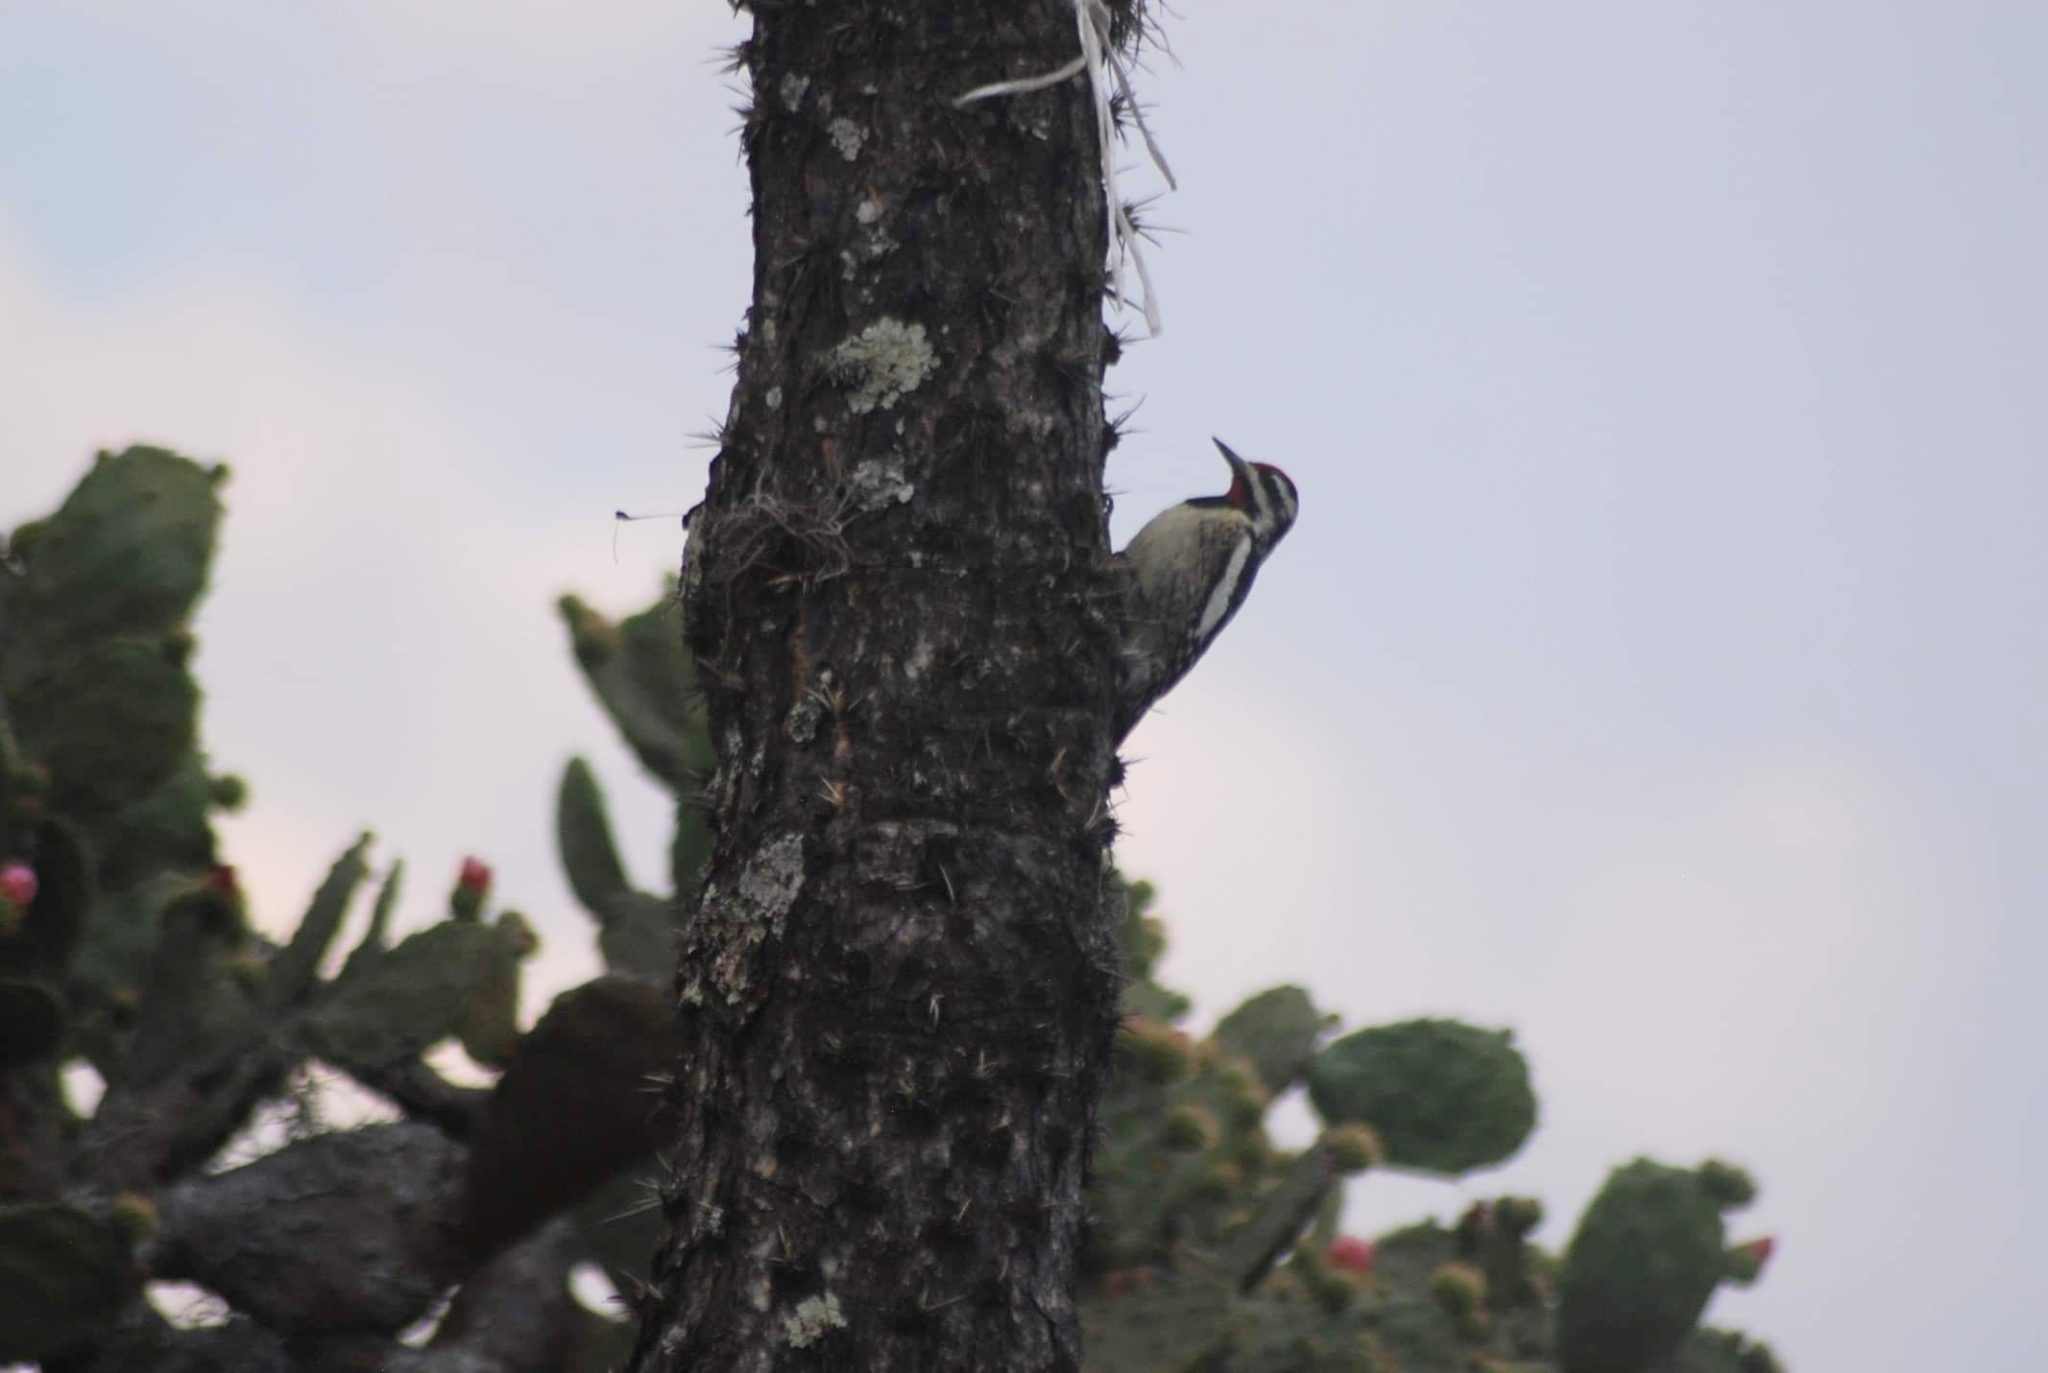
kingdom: Animalia
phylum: Chordata
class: Aves
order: Piciformes
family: Picidae
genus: Sphyrapicus
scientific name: Sphyrapicus varius
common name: Yellow-bellied sapsucker
